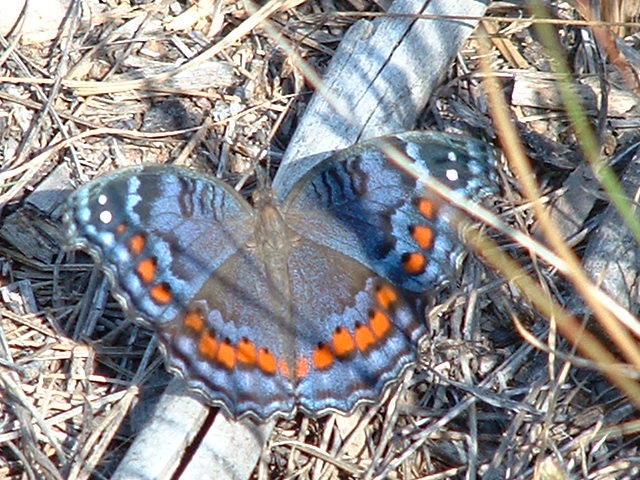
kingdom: Animalia
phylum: Arthropoda
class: Insecta
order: Lepidoptera
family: Nymphalidae
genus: Precis
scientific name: Precis octavia
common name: Gaudy commodore
